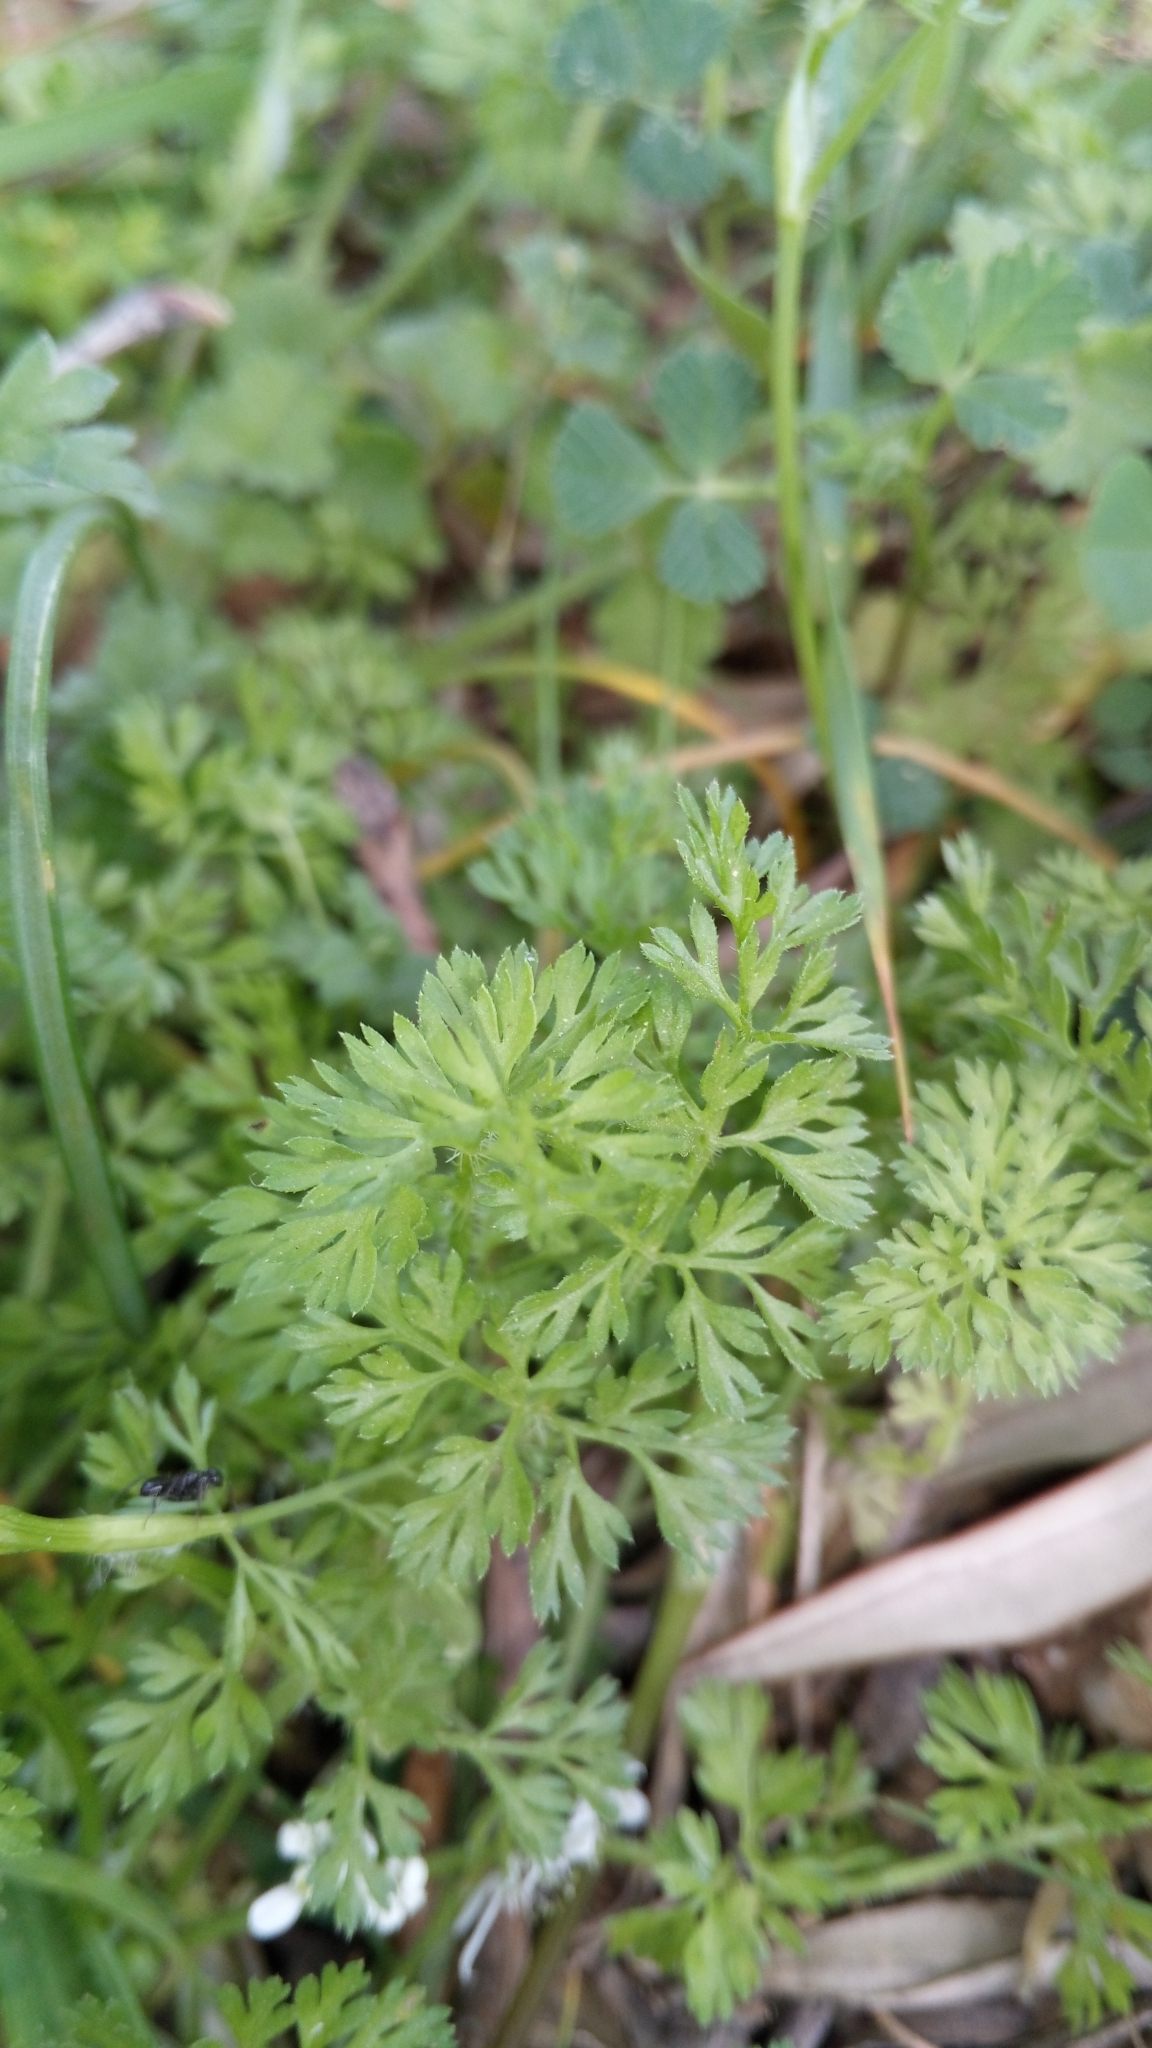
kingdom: Plantae
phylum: Tracheophyta
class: Magnoliopsida
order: Apiales
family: Apiaceae
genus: Scandix
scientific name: Scandix pecten-veneris
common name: Shepherd's-needle
